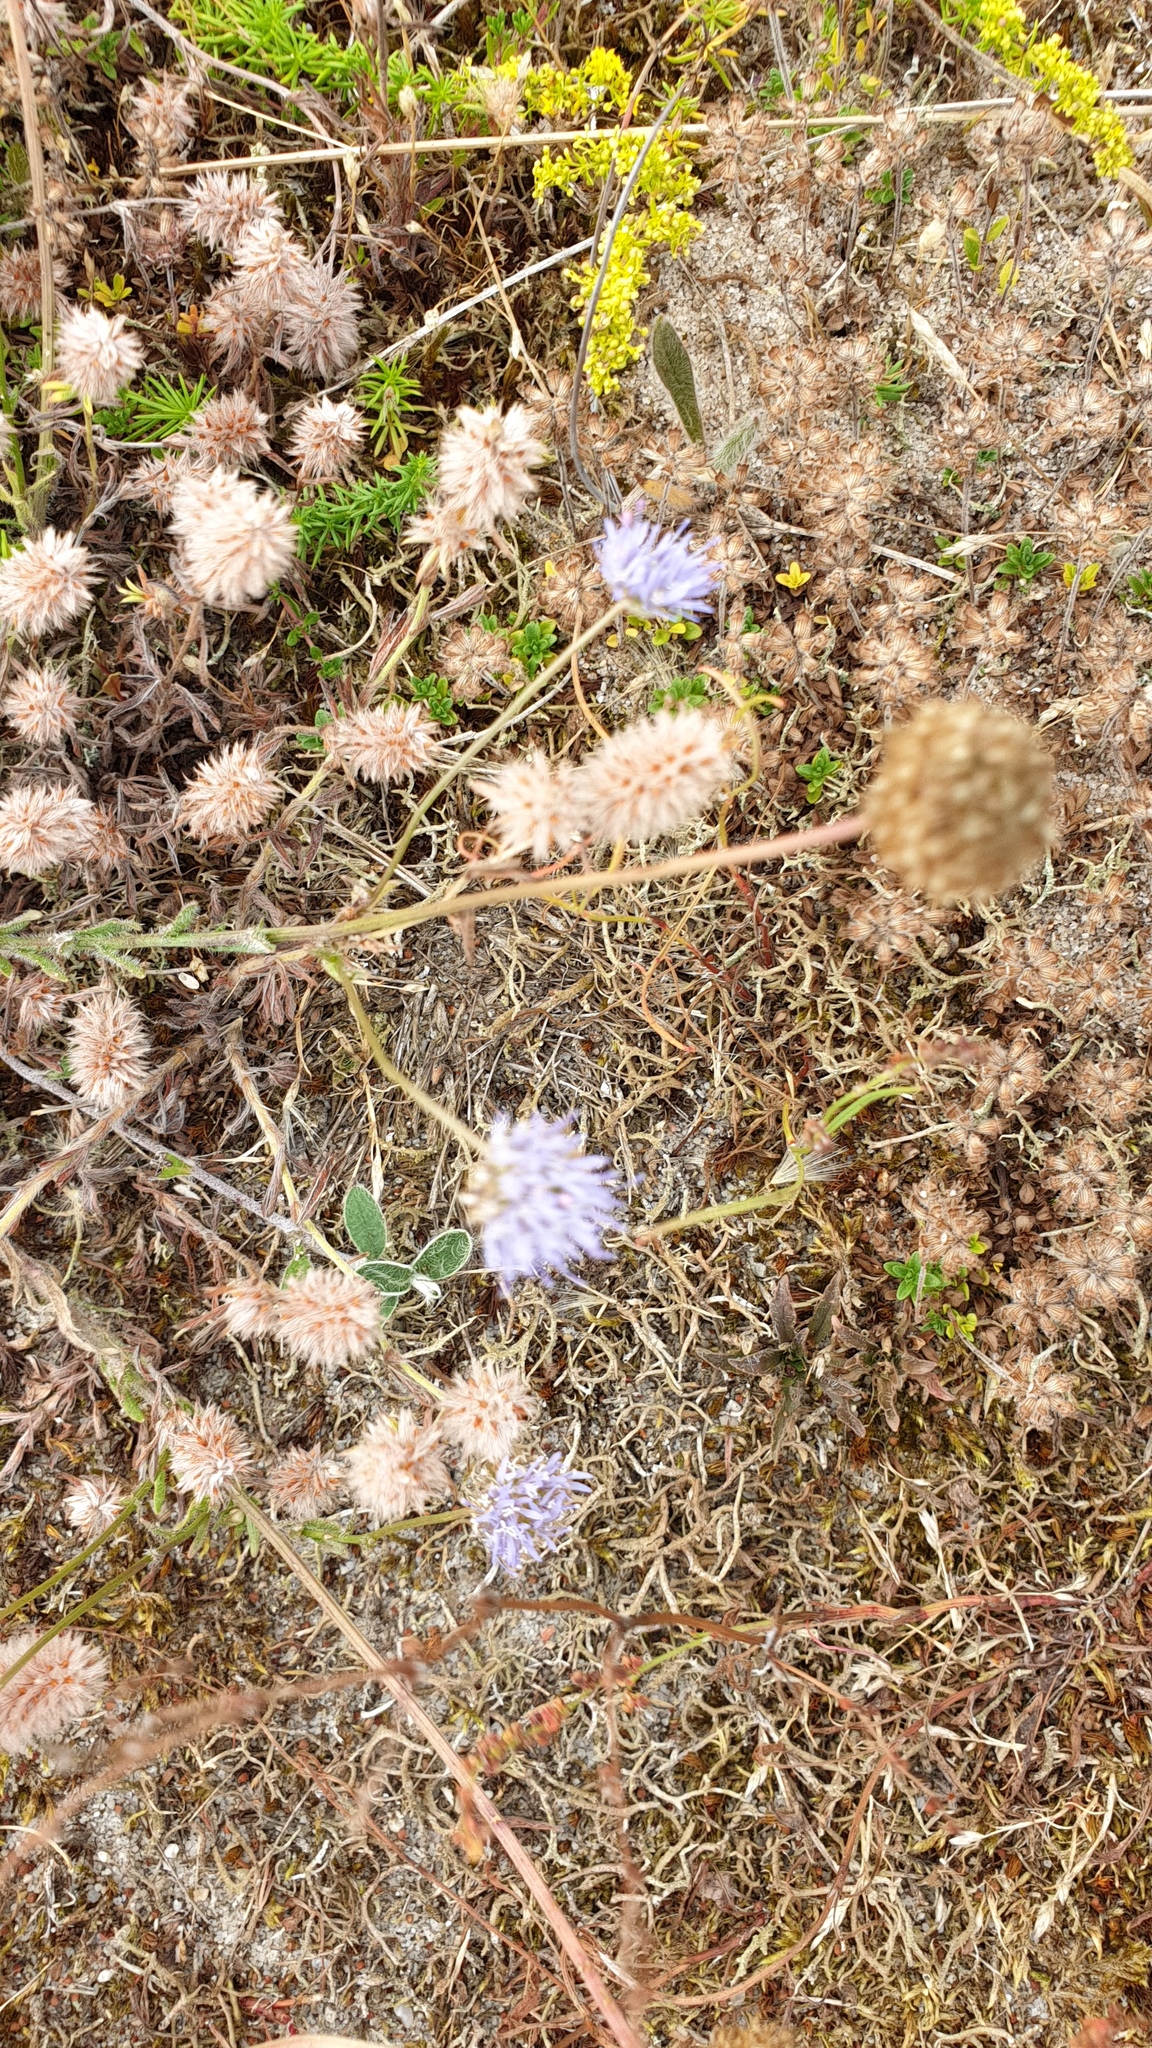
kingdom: Plantae
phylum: Tracheophyta
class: Magnoliopsida
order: Asterales
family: Campanulaceae
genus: Jasione
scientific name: Jasione montana
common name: Sheep's-bit
